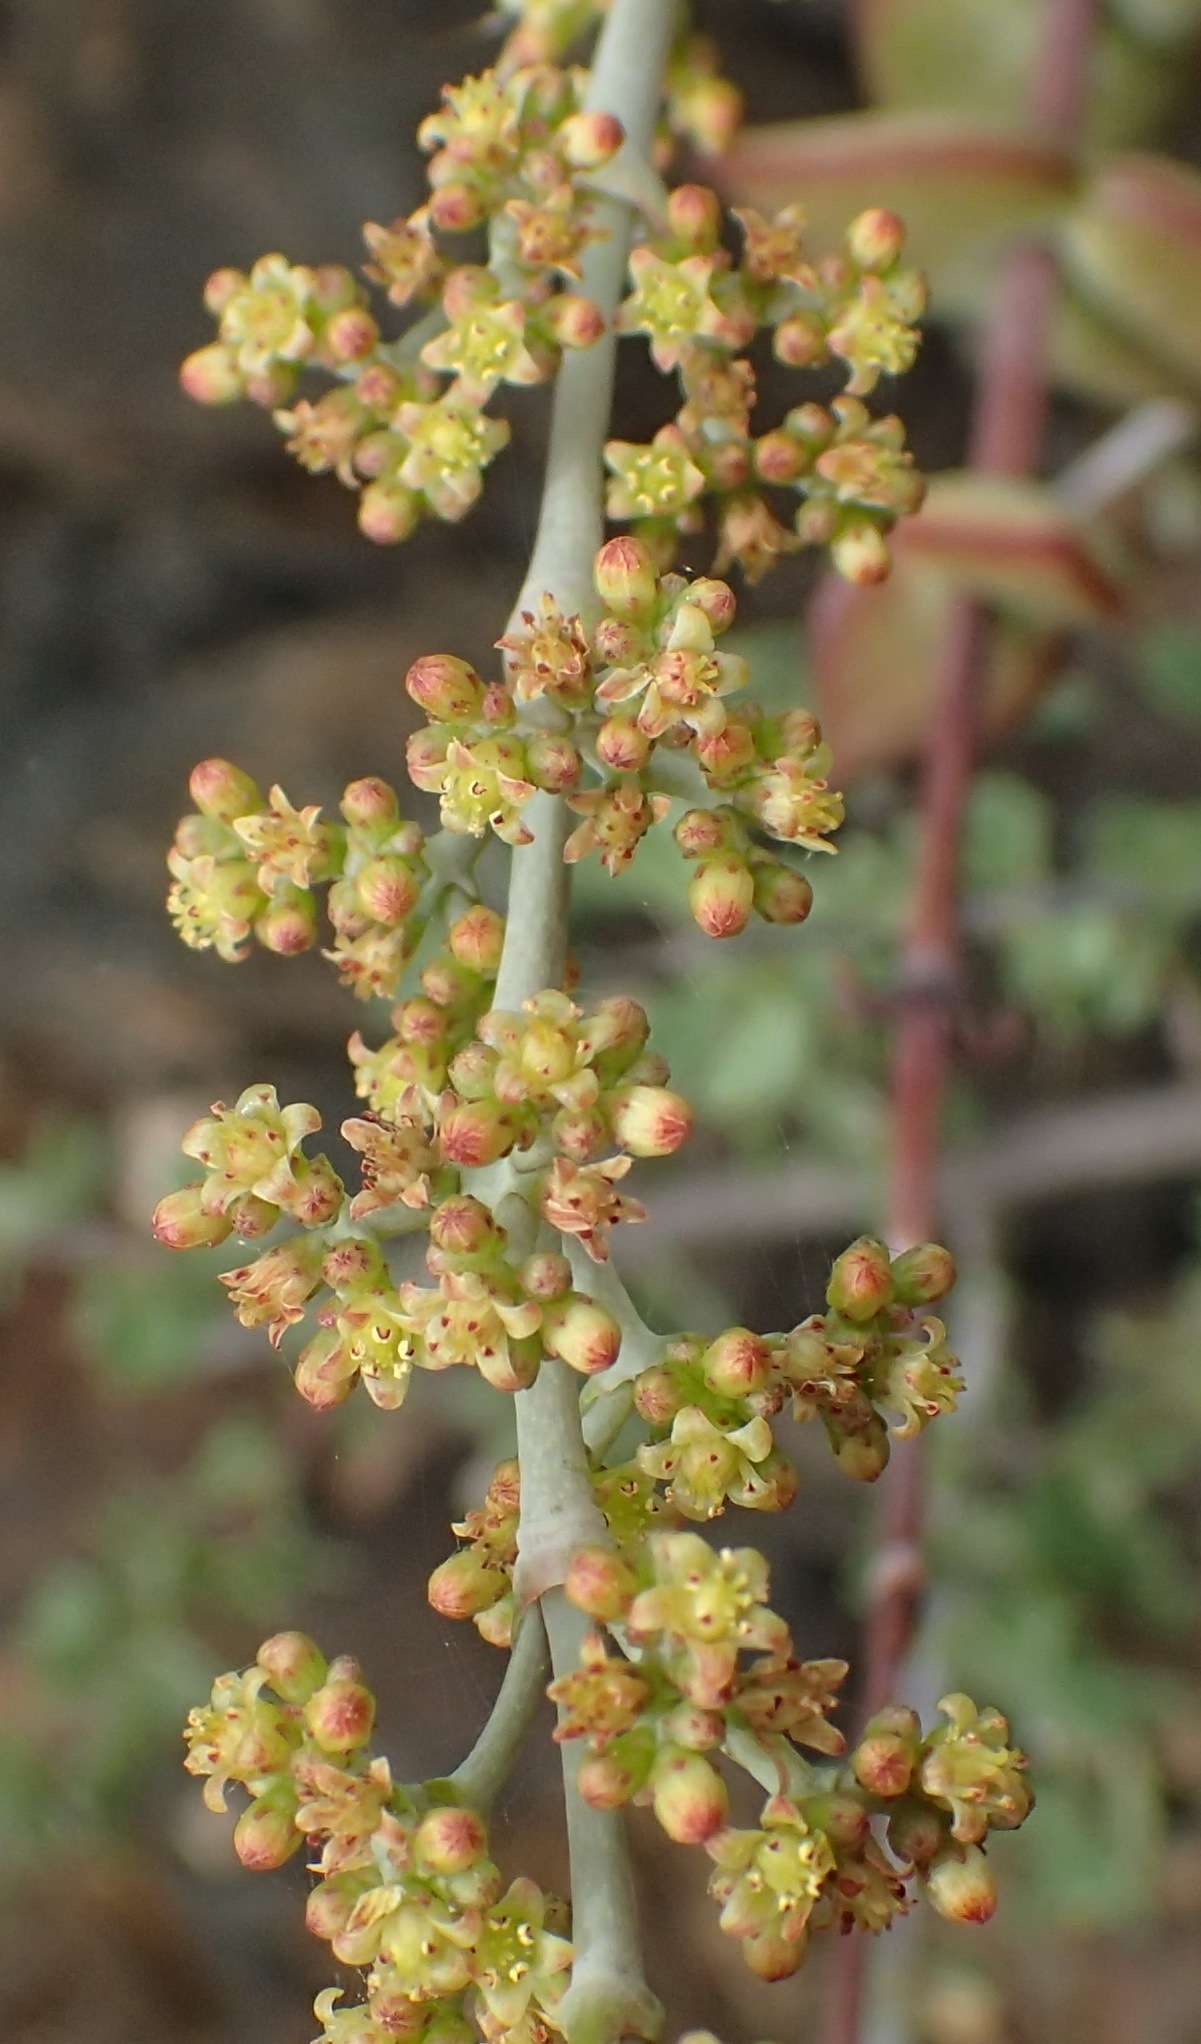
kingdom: Plantae
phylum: Tracheophyta
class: Magnoliopsida
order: Saxifragales
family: Crassulaceae
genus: Crassula
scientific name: Crassula perforata
